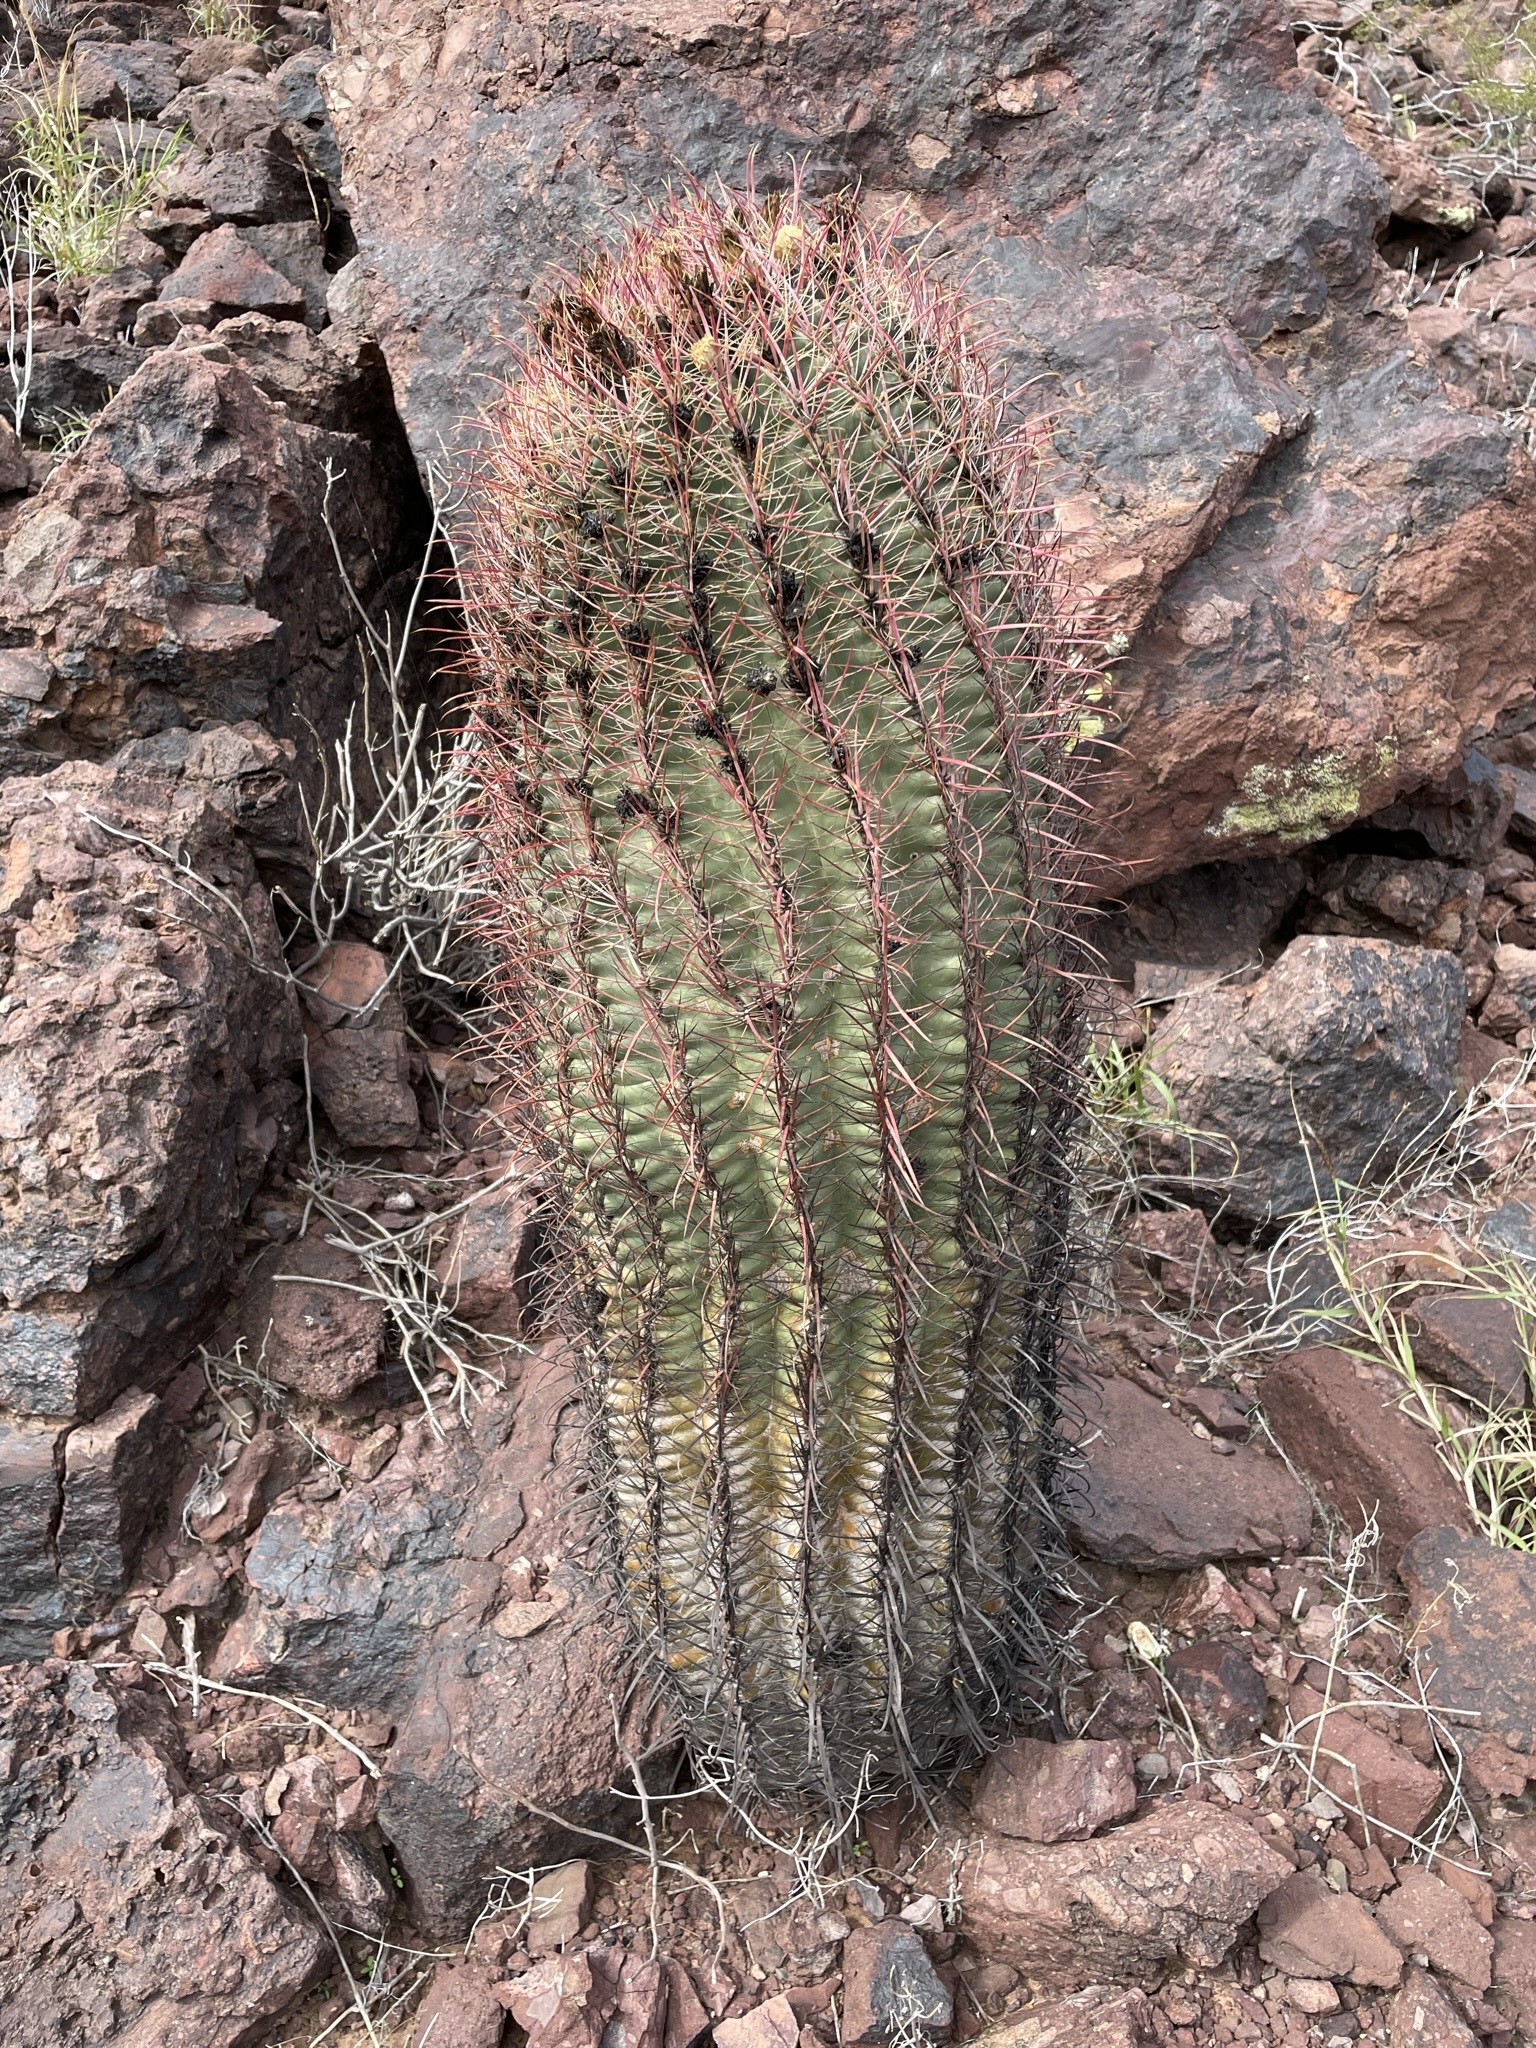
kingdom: Plantae
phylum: Tracheophyta
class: Magnoliopsida
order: Caryophyllales
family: Cactaceae
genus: Ferocactus
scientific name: Ferocactus cylindraceus
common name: California barrel cactus
